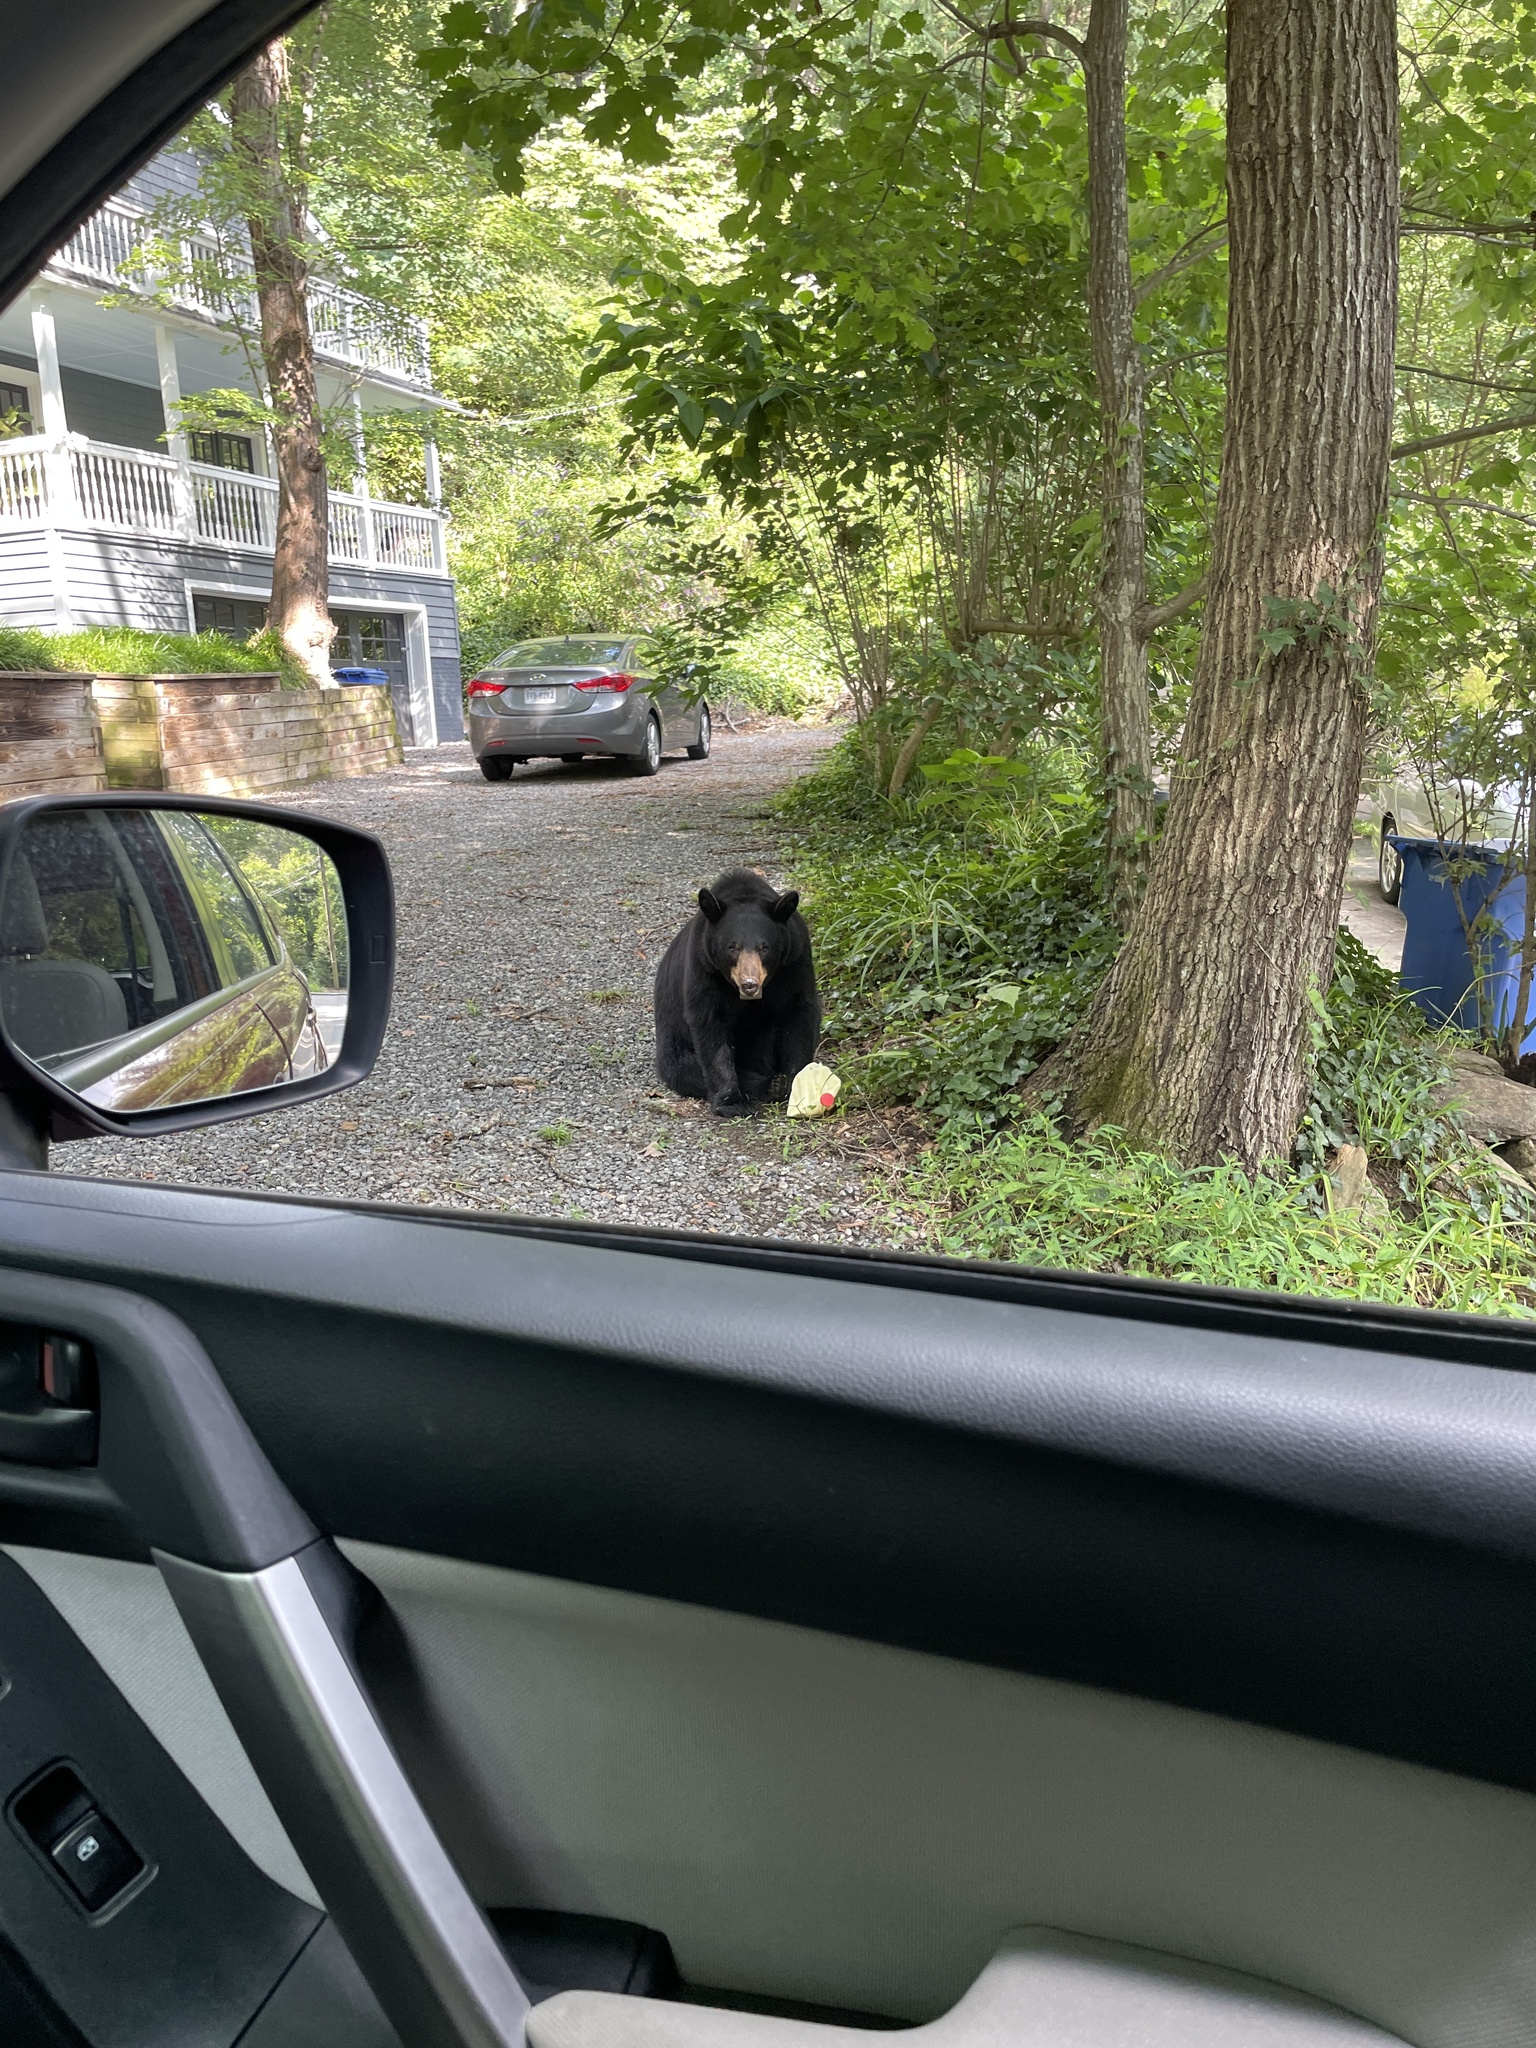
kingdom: Animalia
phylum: Chordata
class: Mammalia
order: Carnivora
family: Ursidae
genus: Ursus
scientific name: Ursus americanus
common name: American black bear
